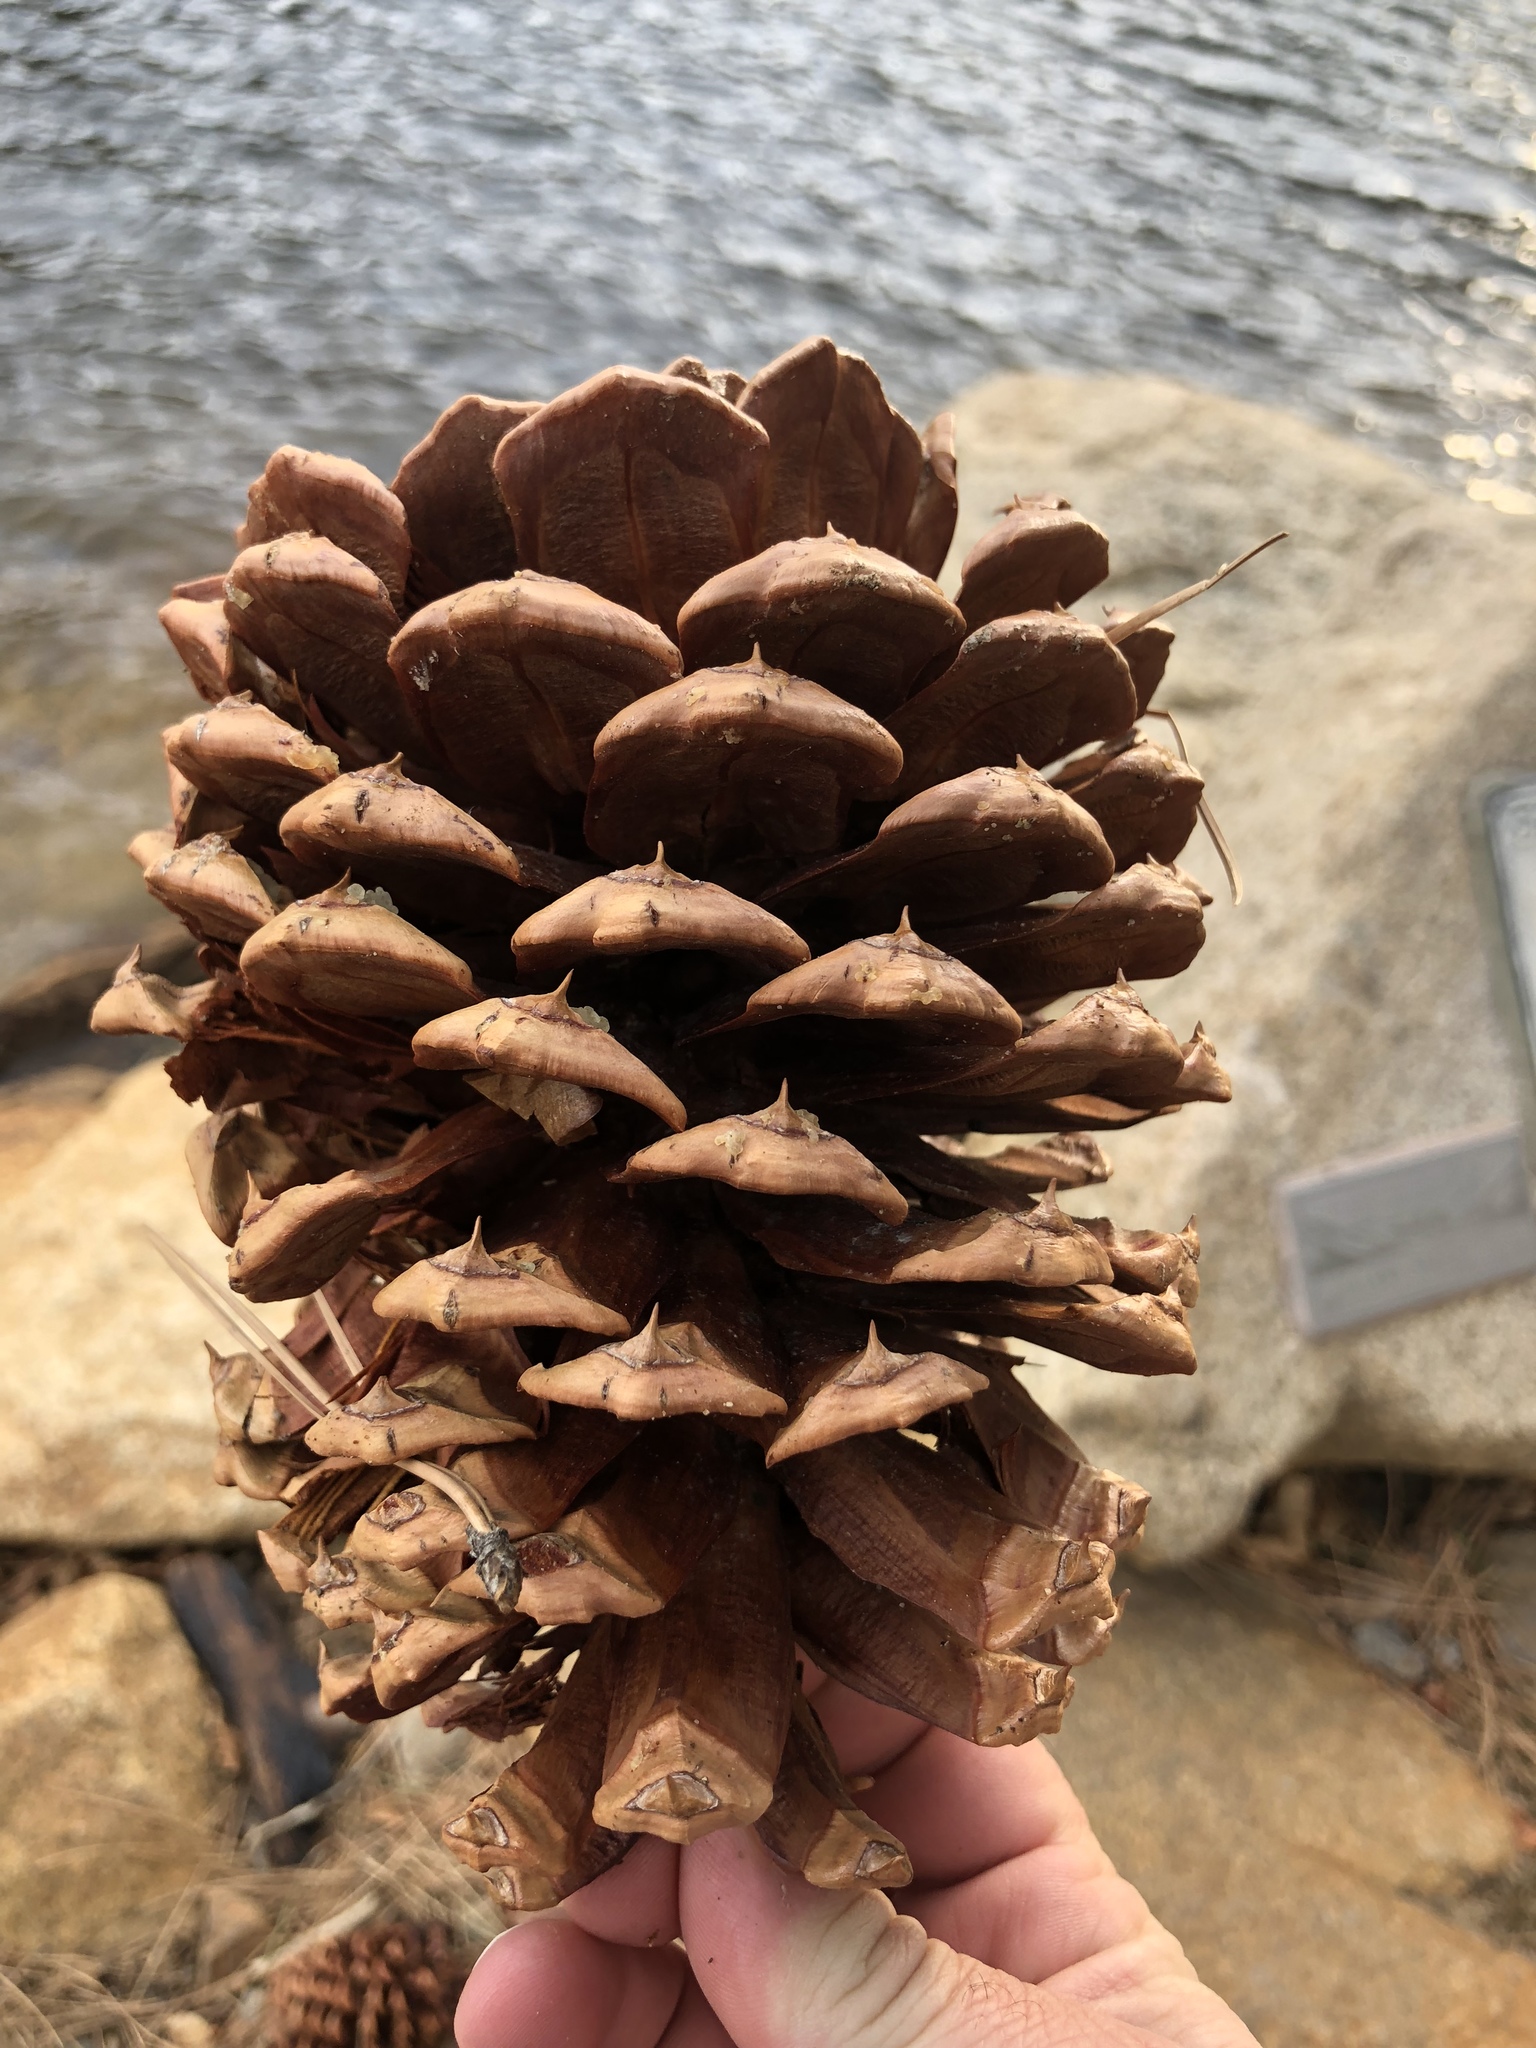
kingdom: Plantae
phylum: Tracheophyta
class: Pinopsida
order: Pinales
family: Pinaceae
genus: Pinus
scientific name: Pinus jeffreyi
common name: Jeffrey pine
